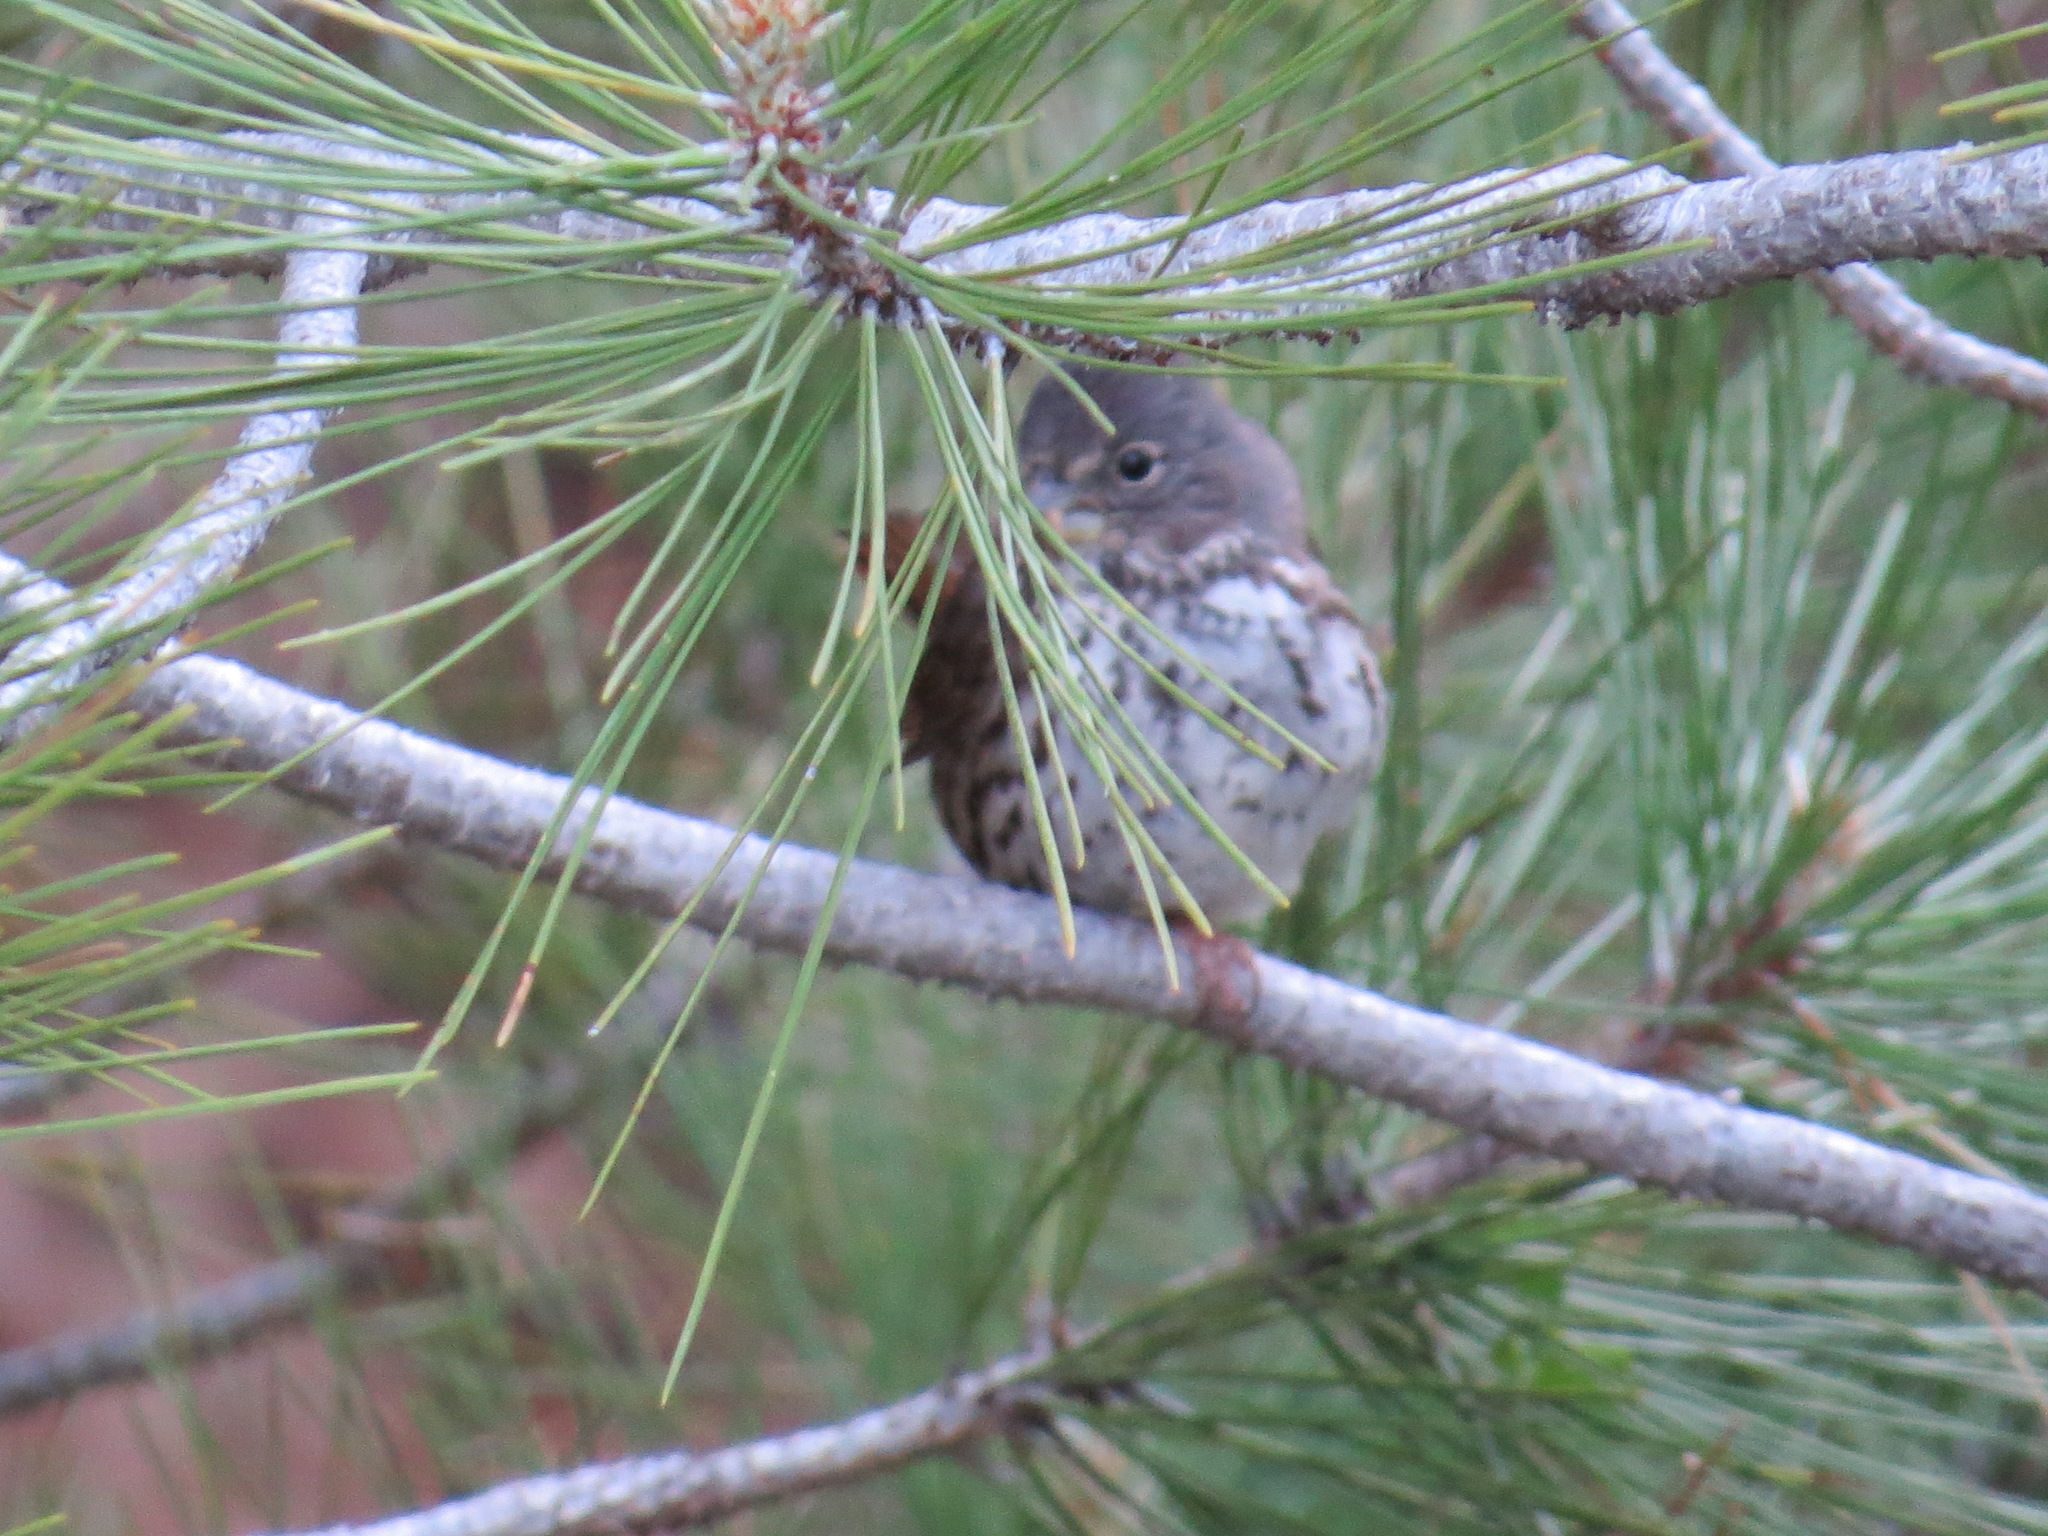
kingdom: Animalia
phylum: Chordata
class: Aves
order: Passeriformes
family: Passerellidae
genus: Passerella
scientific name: Passerella iliaca
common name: Fox sparrow
